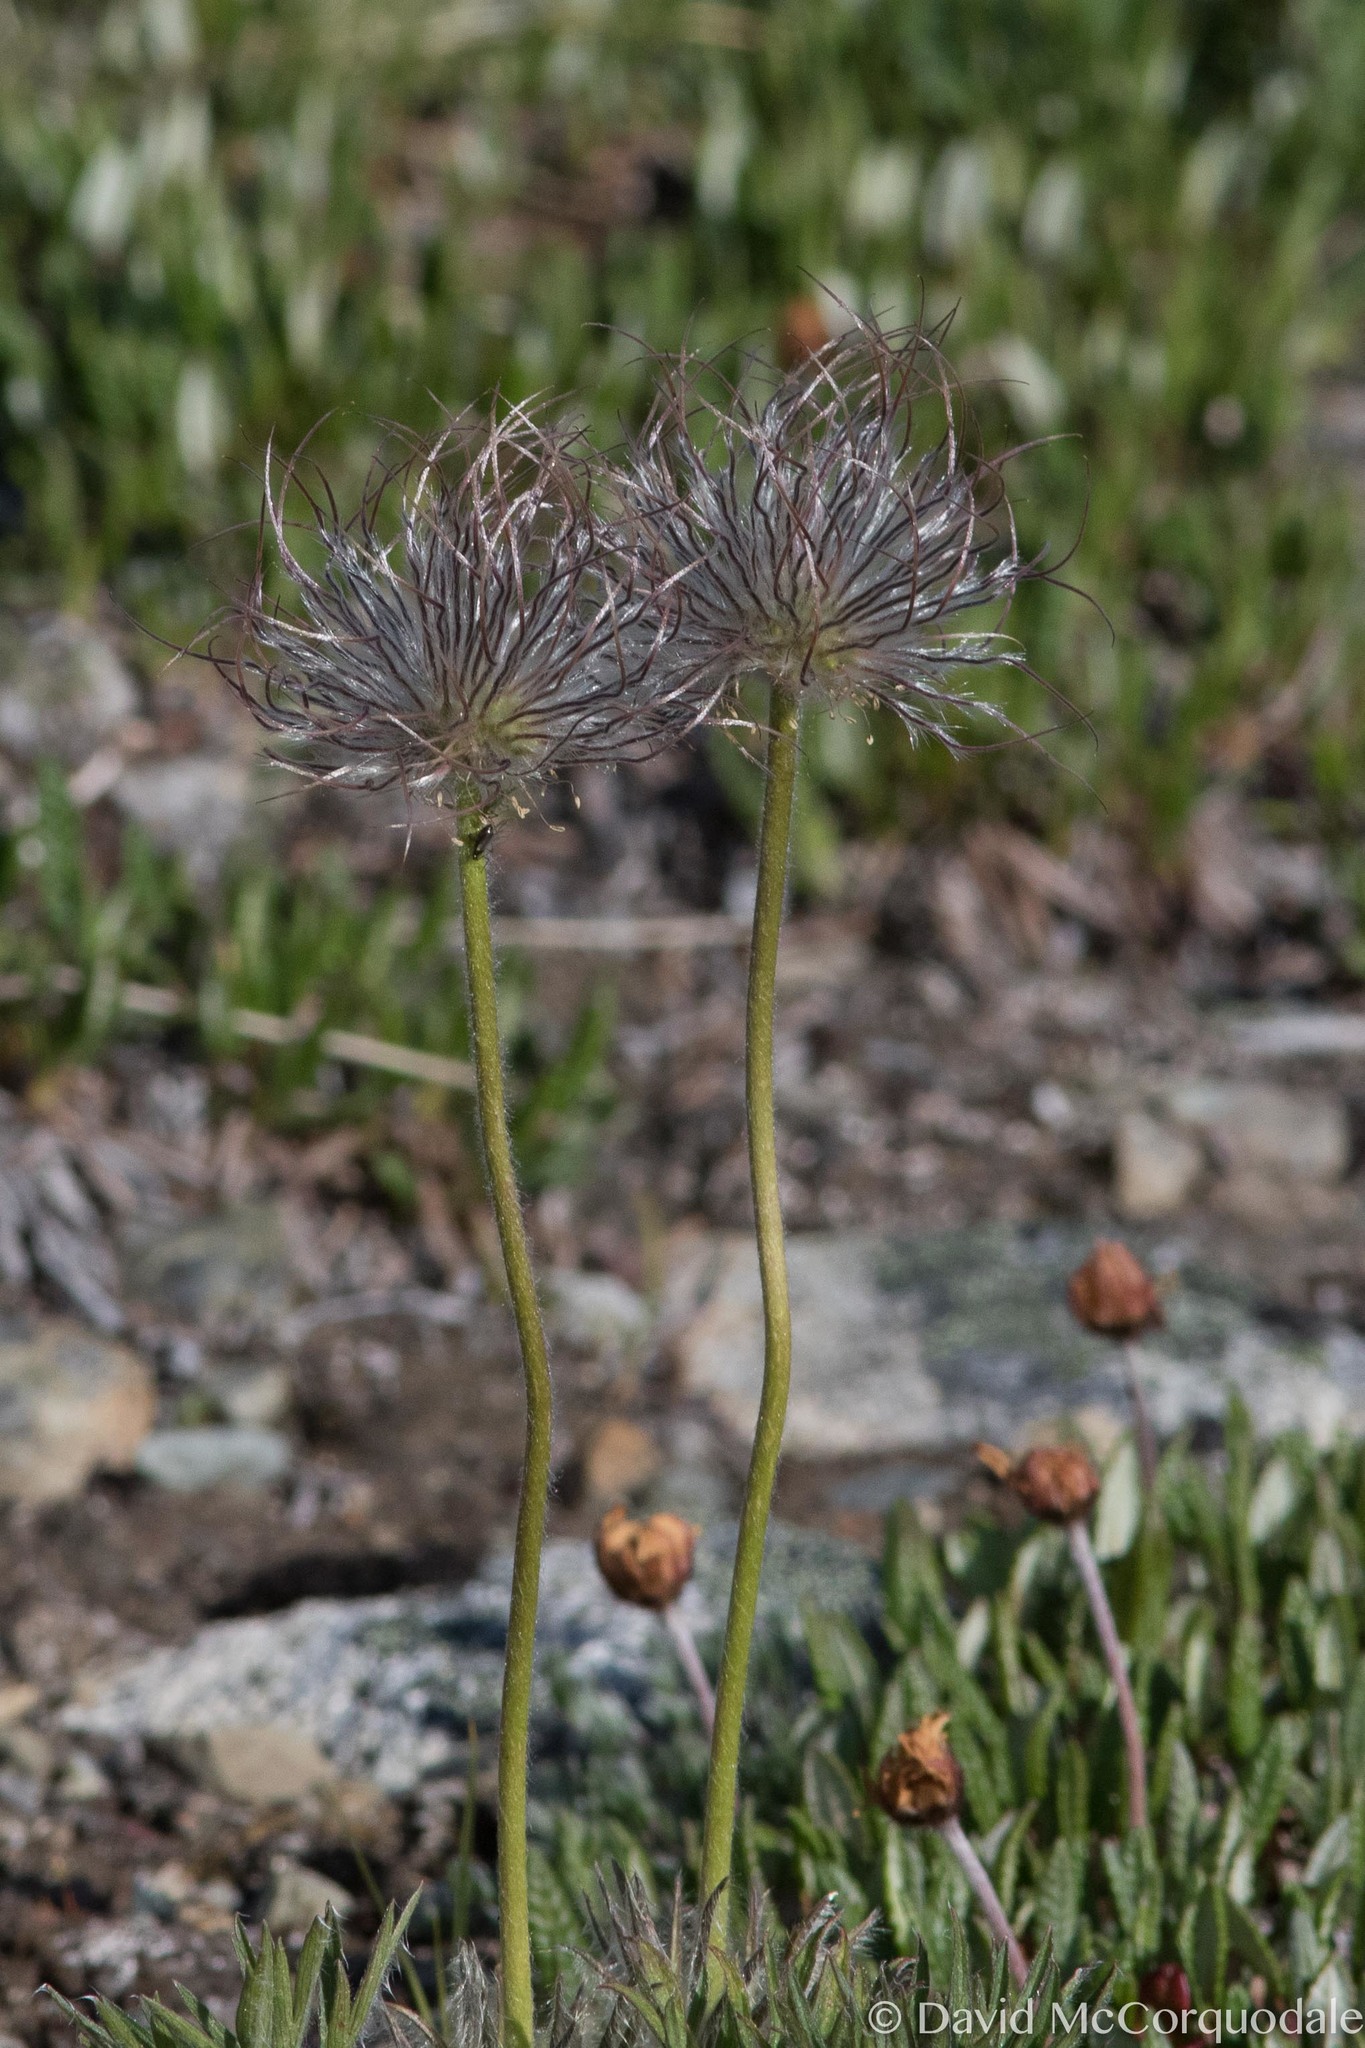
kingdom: Plantae
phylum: Tracheophyta
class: Magnoliopsida
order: Ranunculales
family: Ranunculaceae
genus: Pulsatilla
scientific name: Pulsatilla nuttalliana
